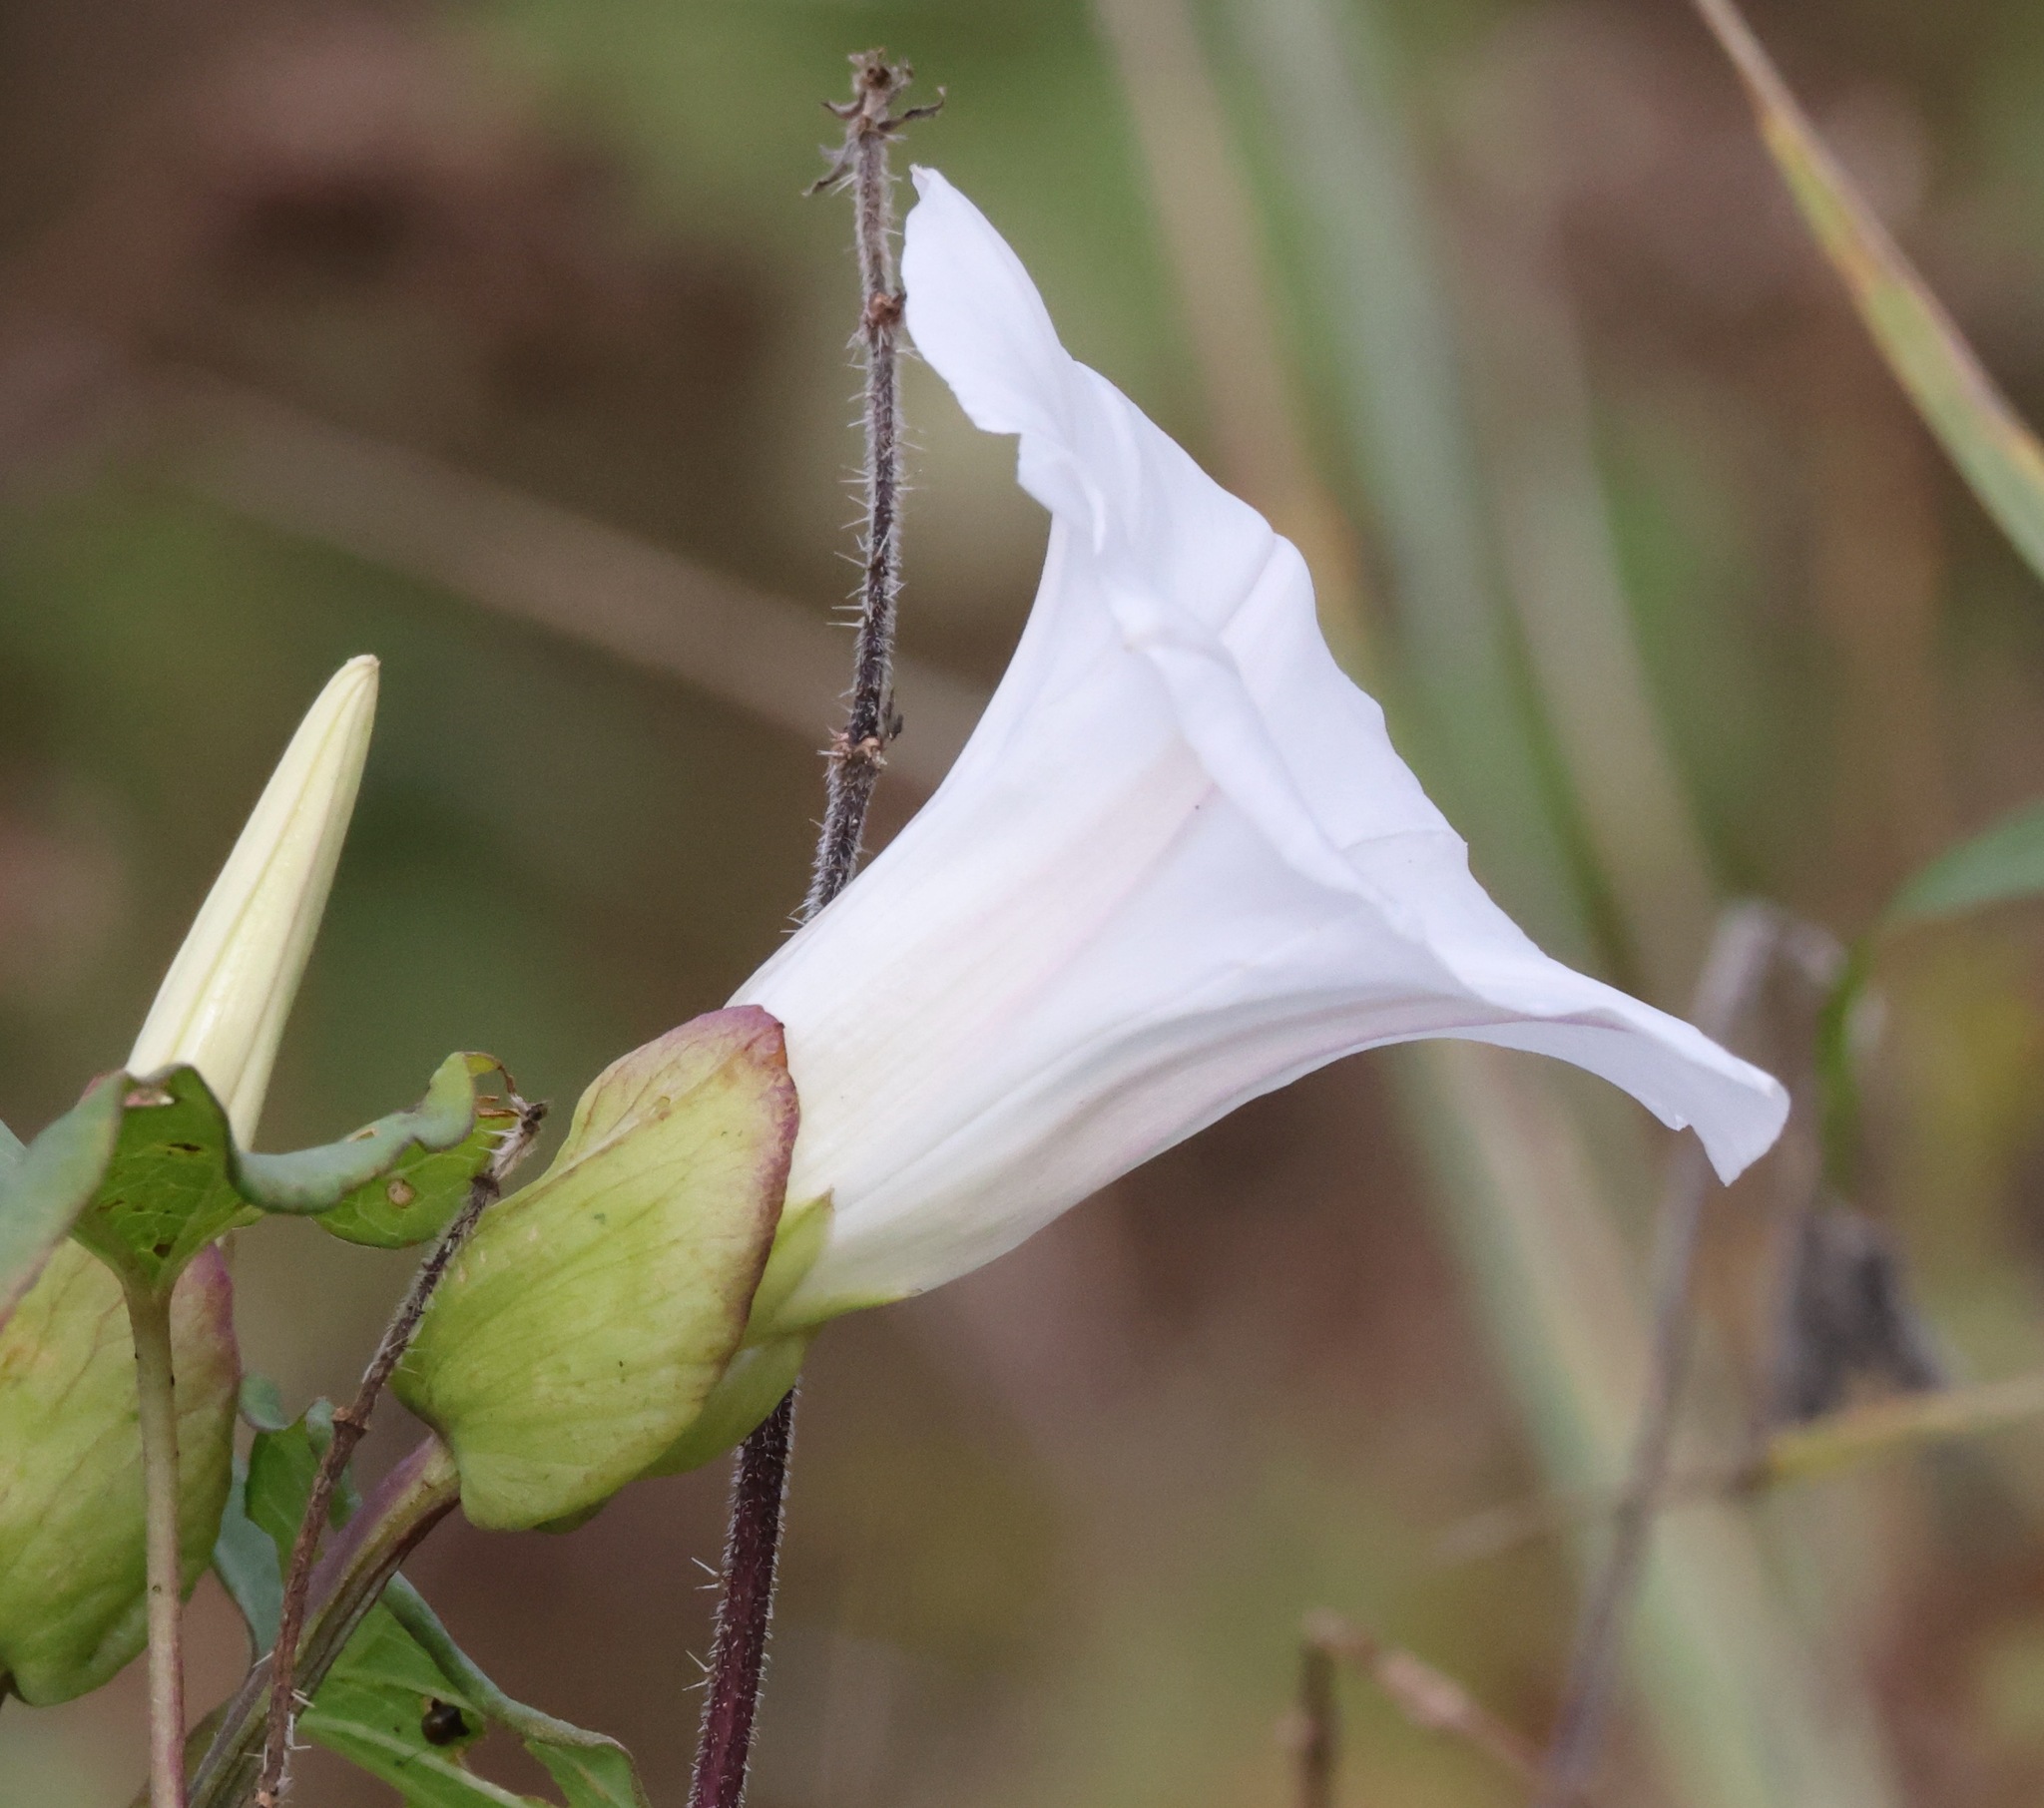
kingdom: Plantae
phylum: Tracheophyta
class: Magnoliopsida
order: Solanales
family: Convolvulaceae
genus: Calystegia
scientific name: Calystegia silvatica
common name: Large bindweed
